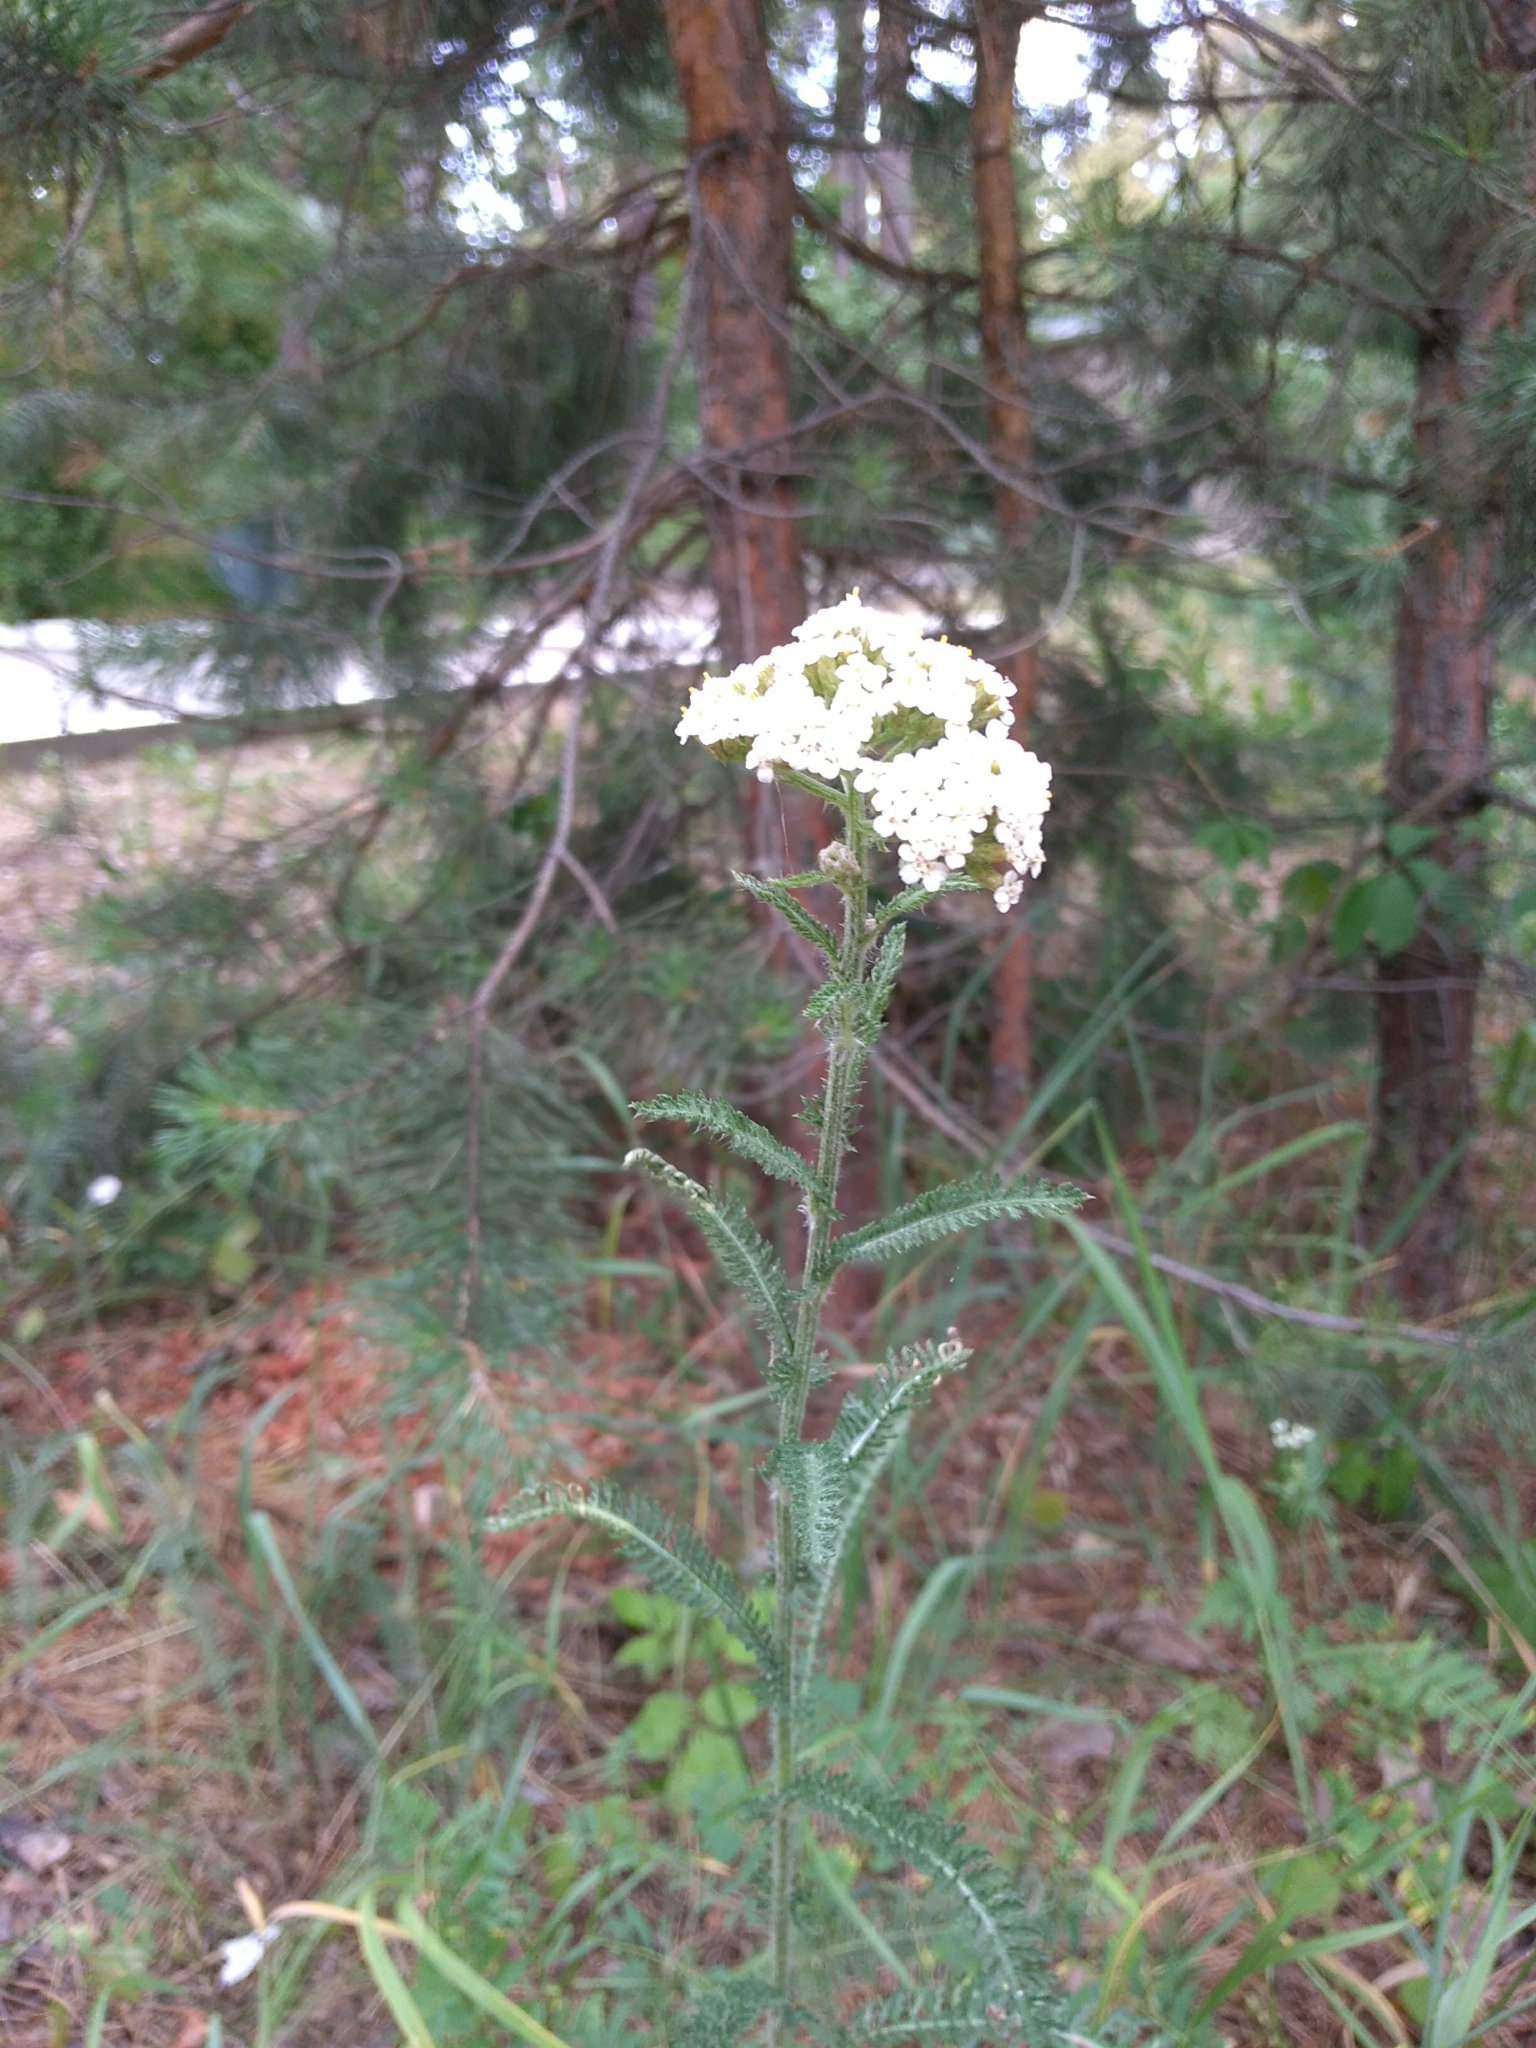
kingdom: Plantae
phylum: Tracheophyta
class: Magnoliopsida
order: Asterales
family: Asteraceae
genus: Achillea
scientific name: Achillea millefolium
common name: Yarrow
